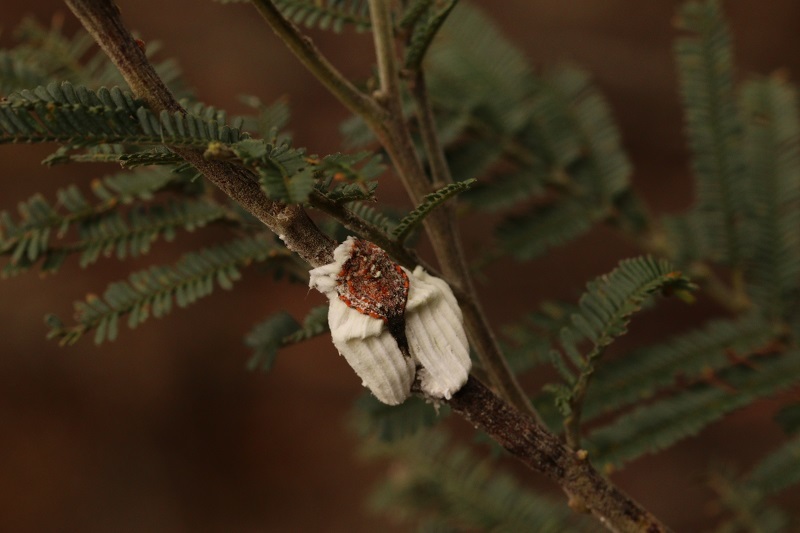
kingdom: Animalia
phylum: Arthropoda
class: Insecta
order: Hemiptera
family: Margarodidae
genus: Icerya
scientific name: Icerya purchasi
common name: Cottony cushion scale
